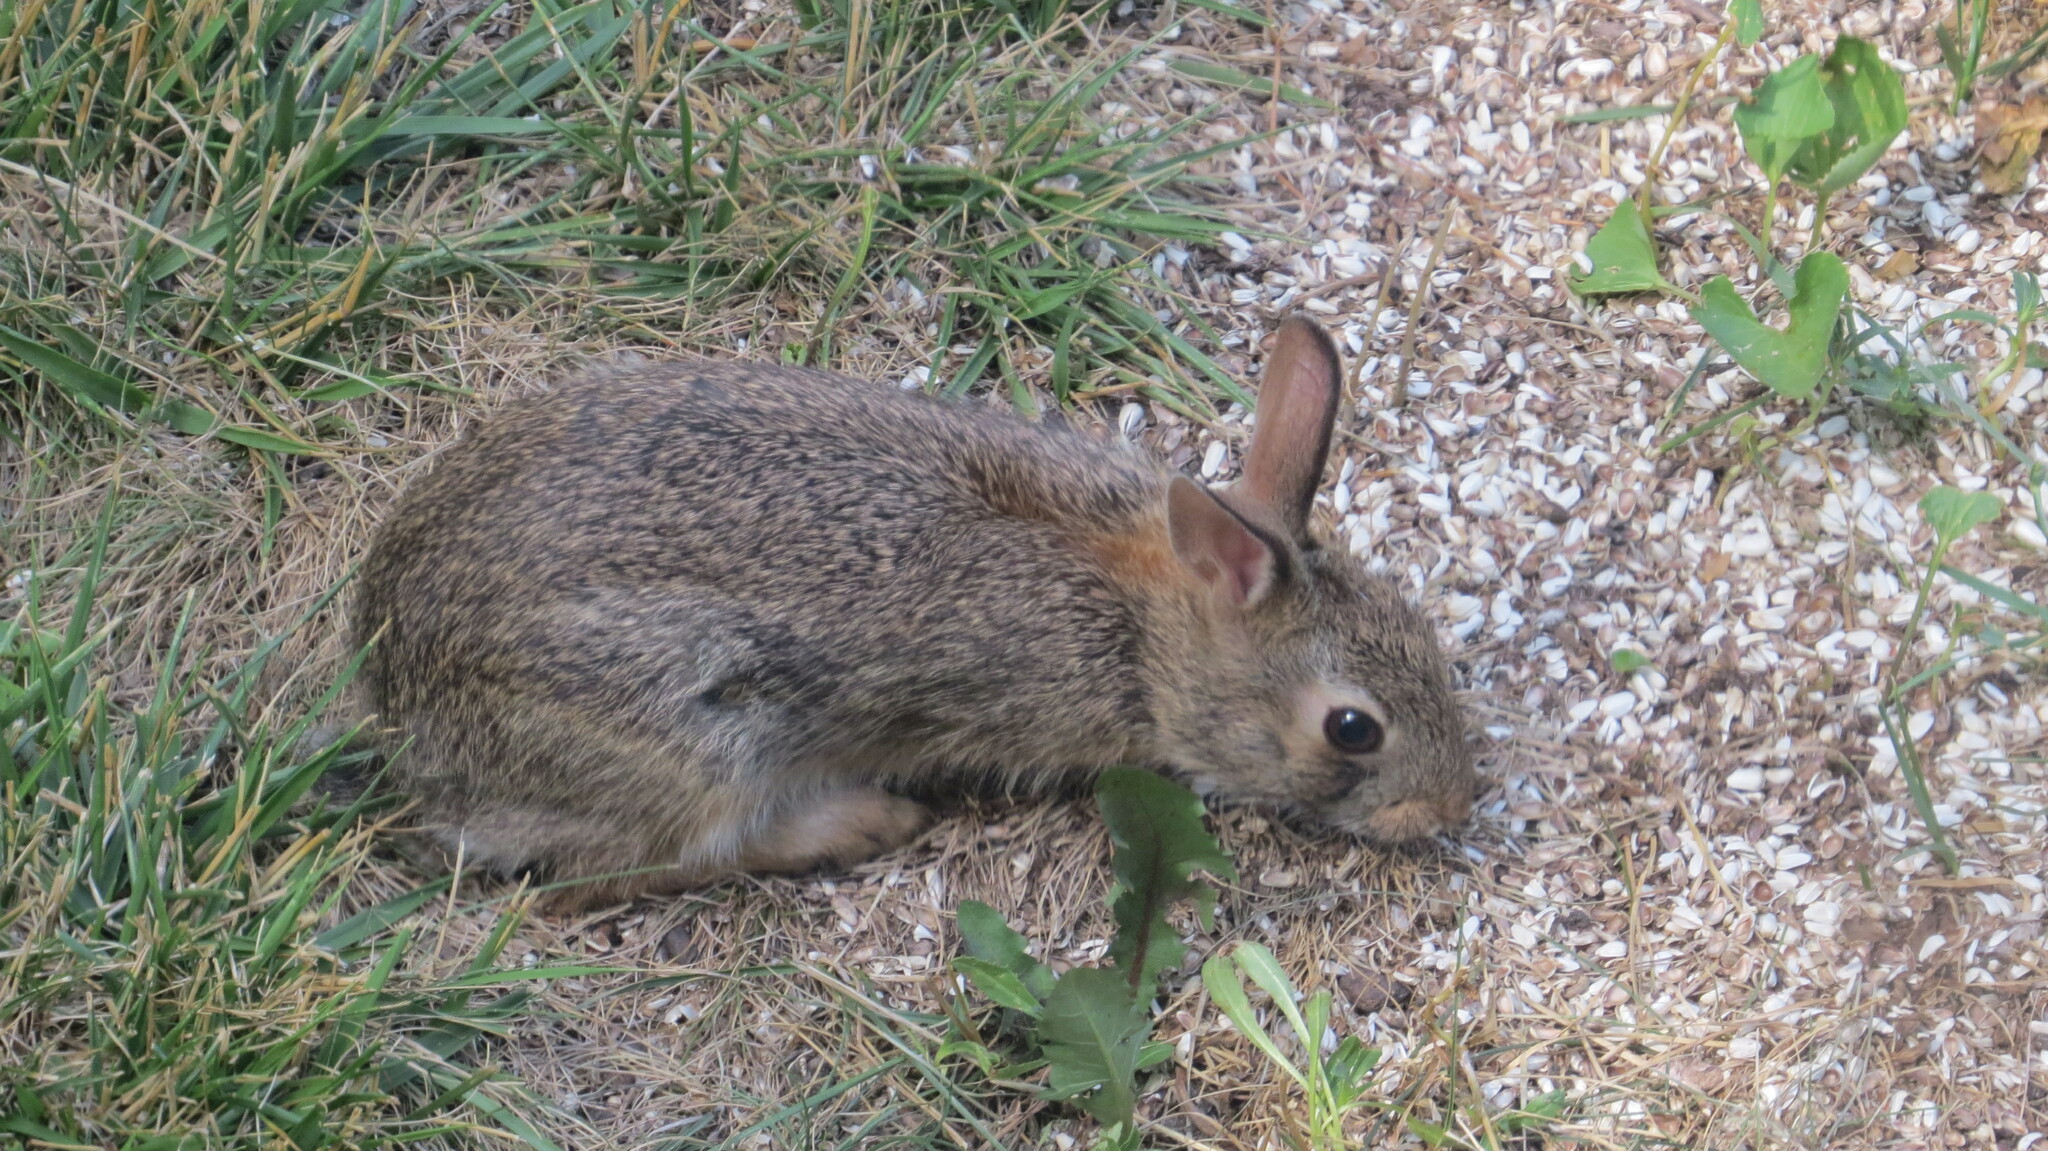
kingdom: Animalia
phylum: Chordata
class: Mammalia
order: Lagomorpha
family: Leporidae
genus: Sylvilagus
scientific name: Sylvilagus floridanus
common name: Eastern cottontail
